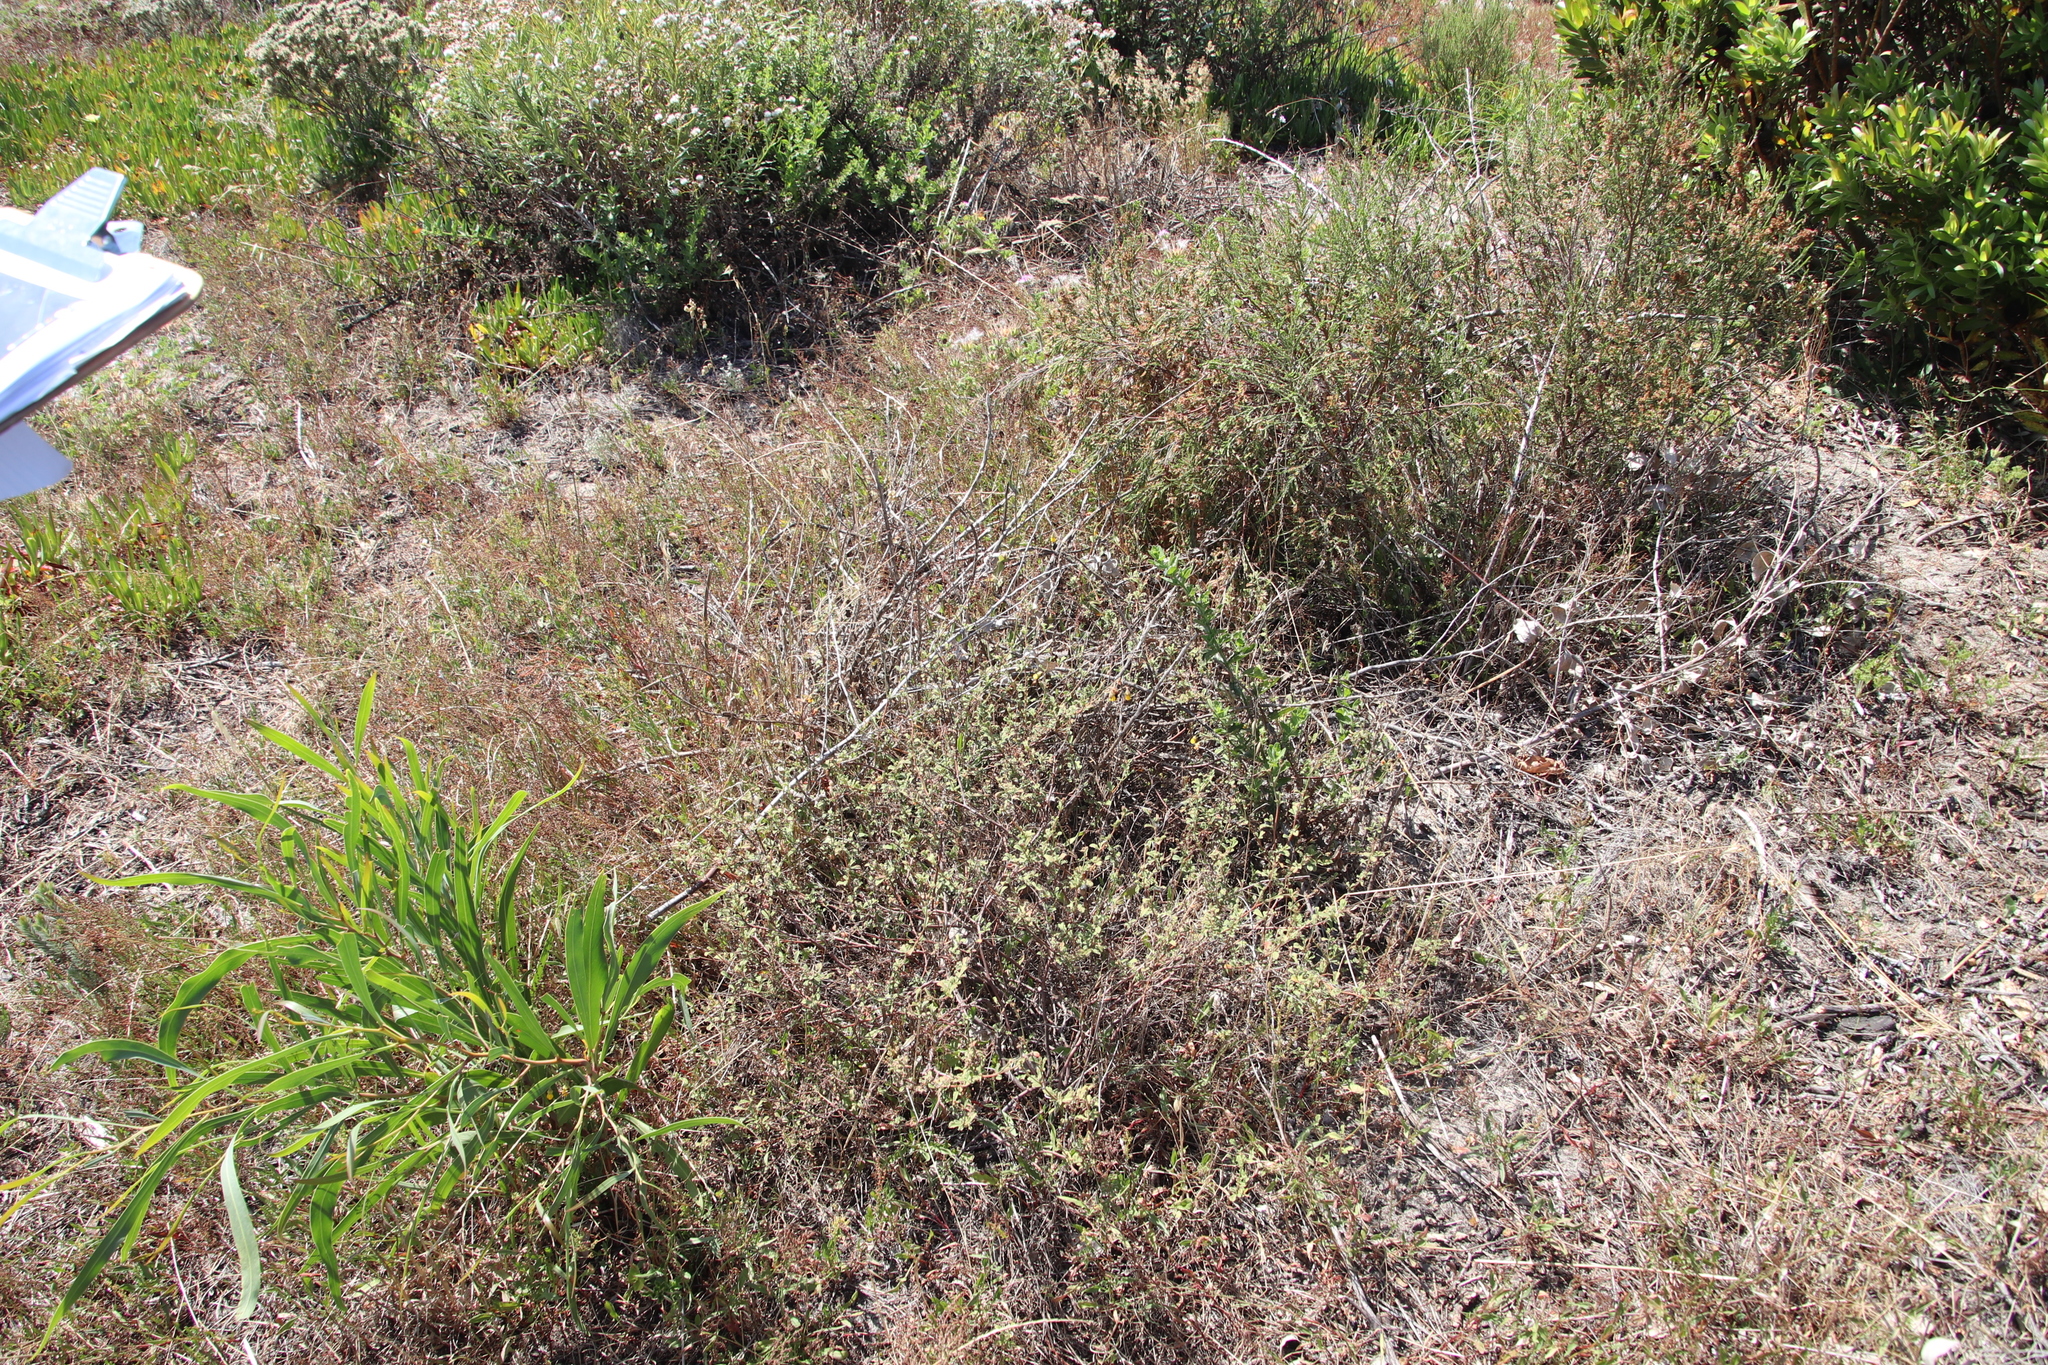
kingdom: Plantae
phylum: Tracheophyta
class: Magnoliopsida
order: Malvales
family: Malvaceae
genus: Hermannia
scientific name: Hermannia multiflora
